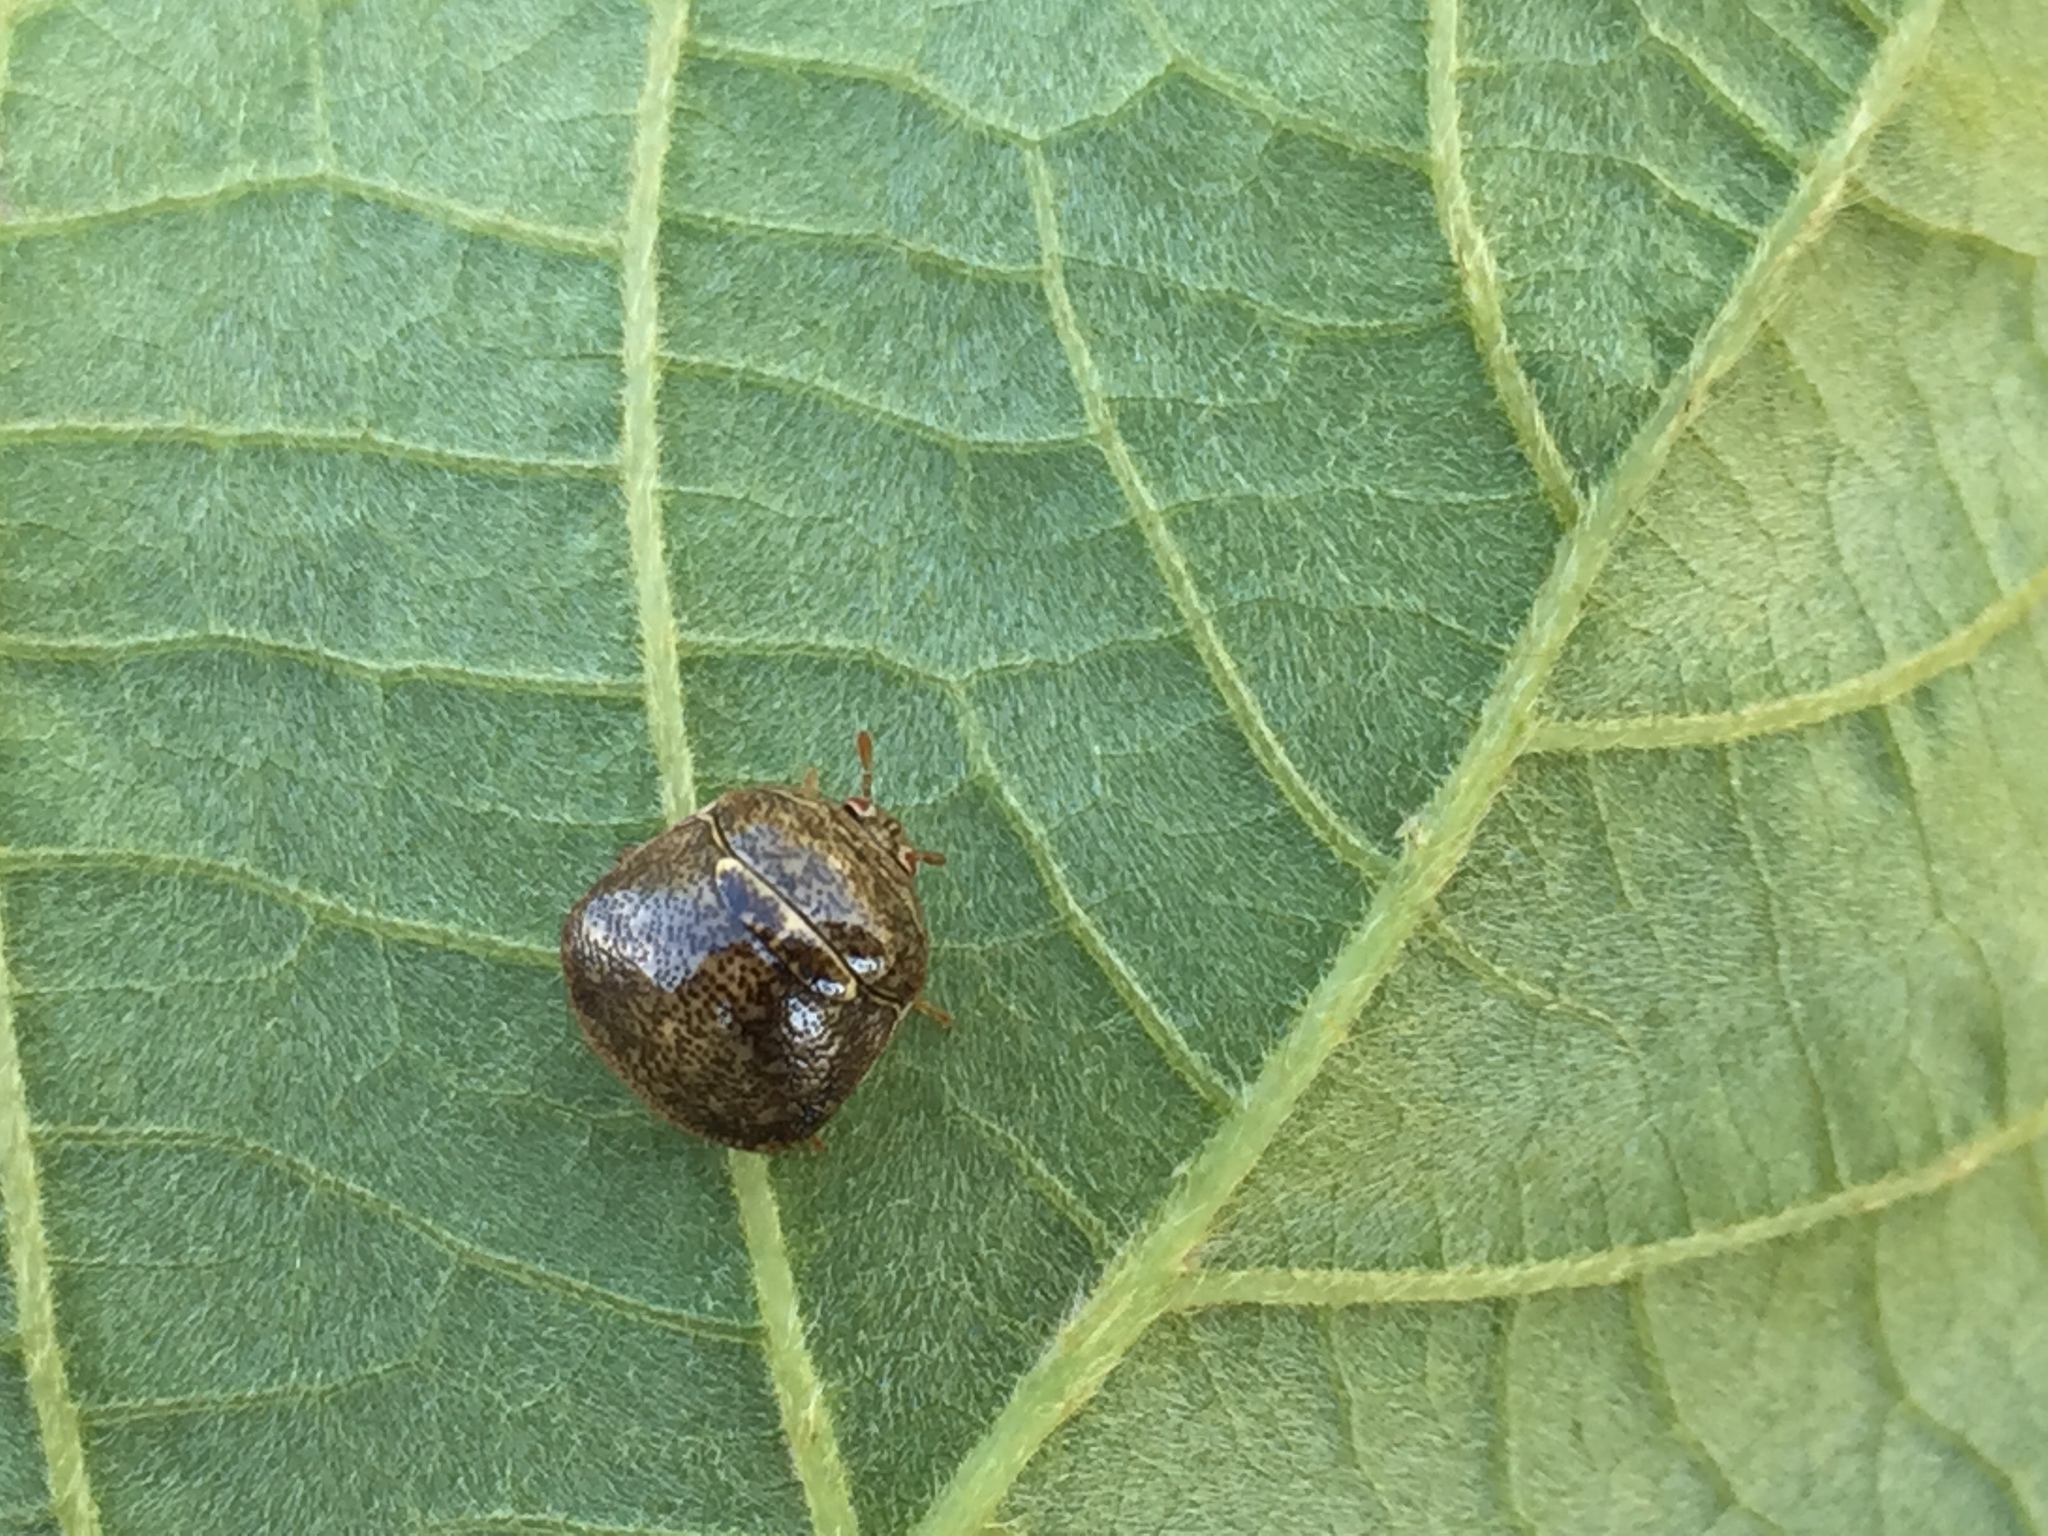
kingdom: Animalia
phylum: Arthropoda
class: Insecta
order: Hemiptera
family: Plataspidae
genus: Megacopta
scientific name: Megacopta cribraria
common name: Bean plataspid
